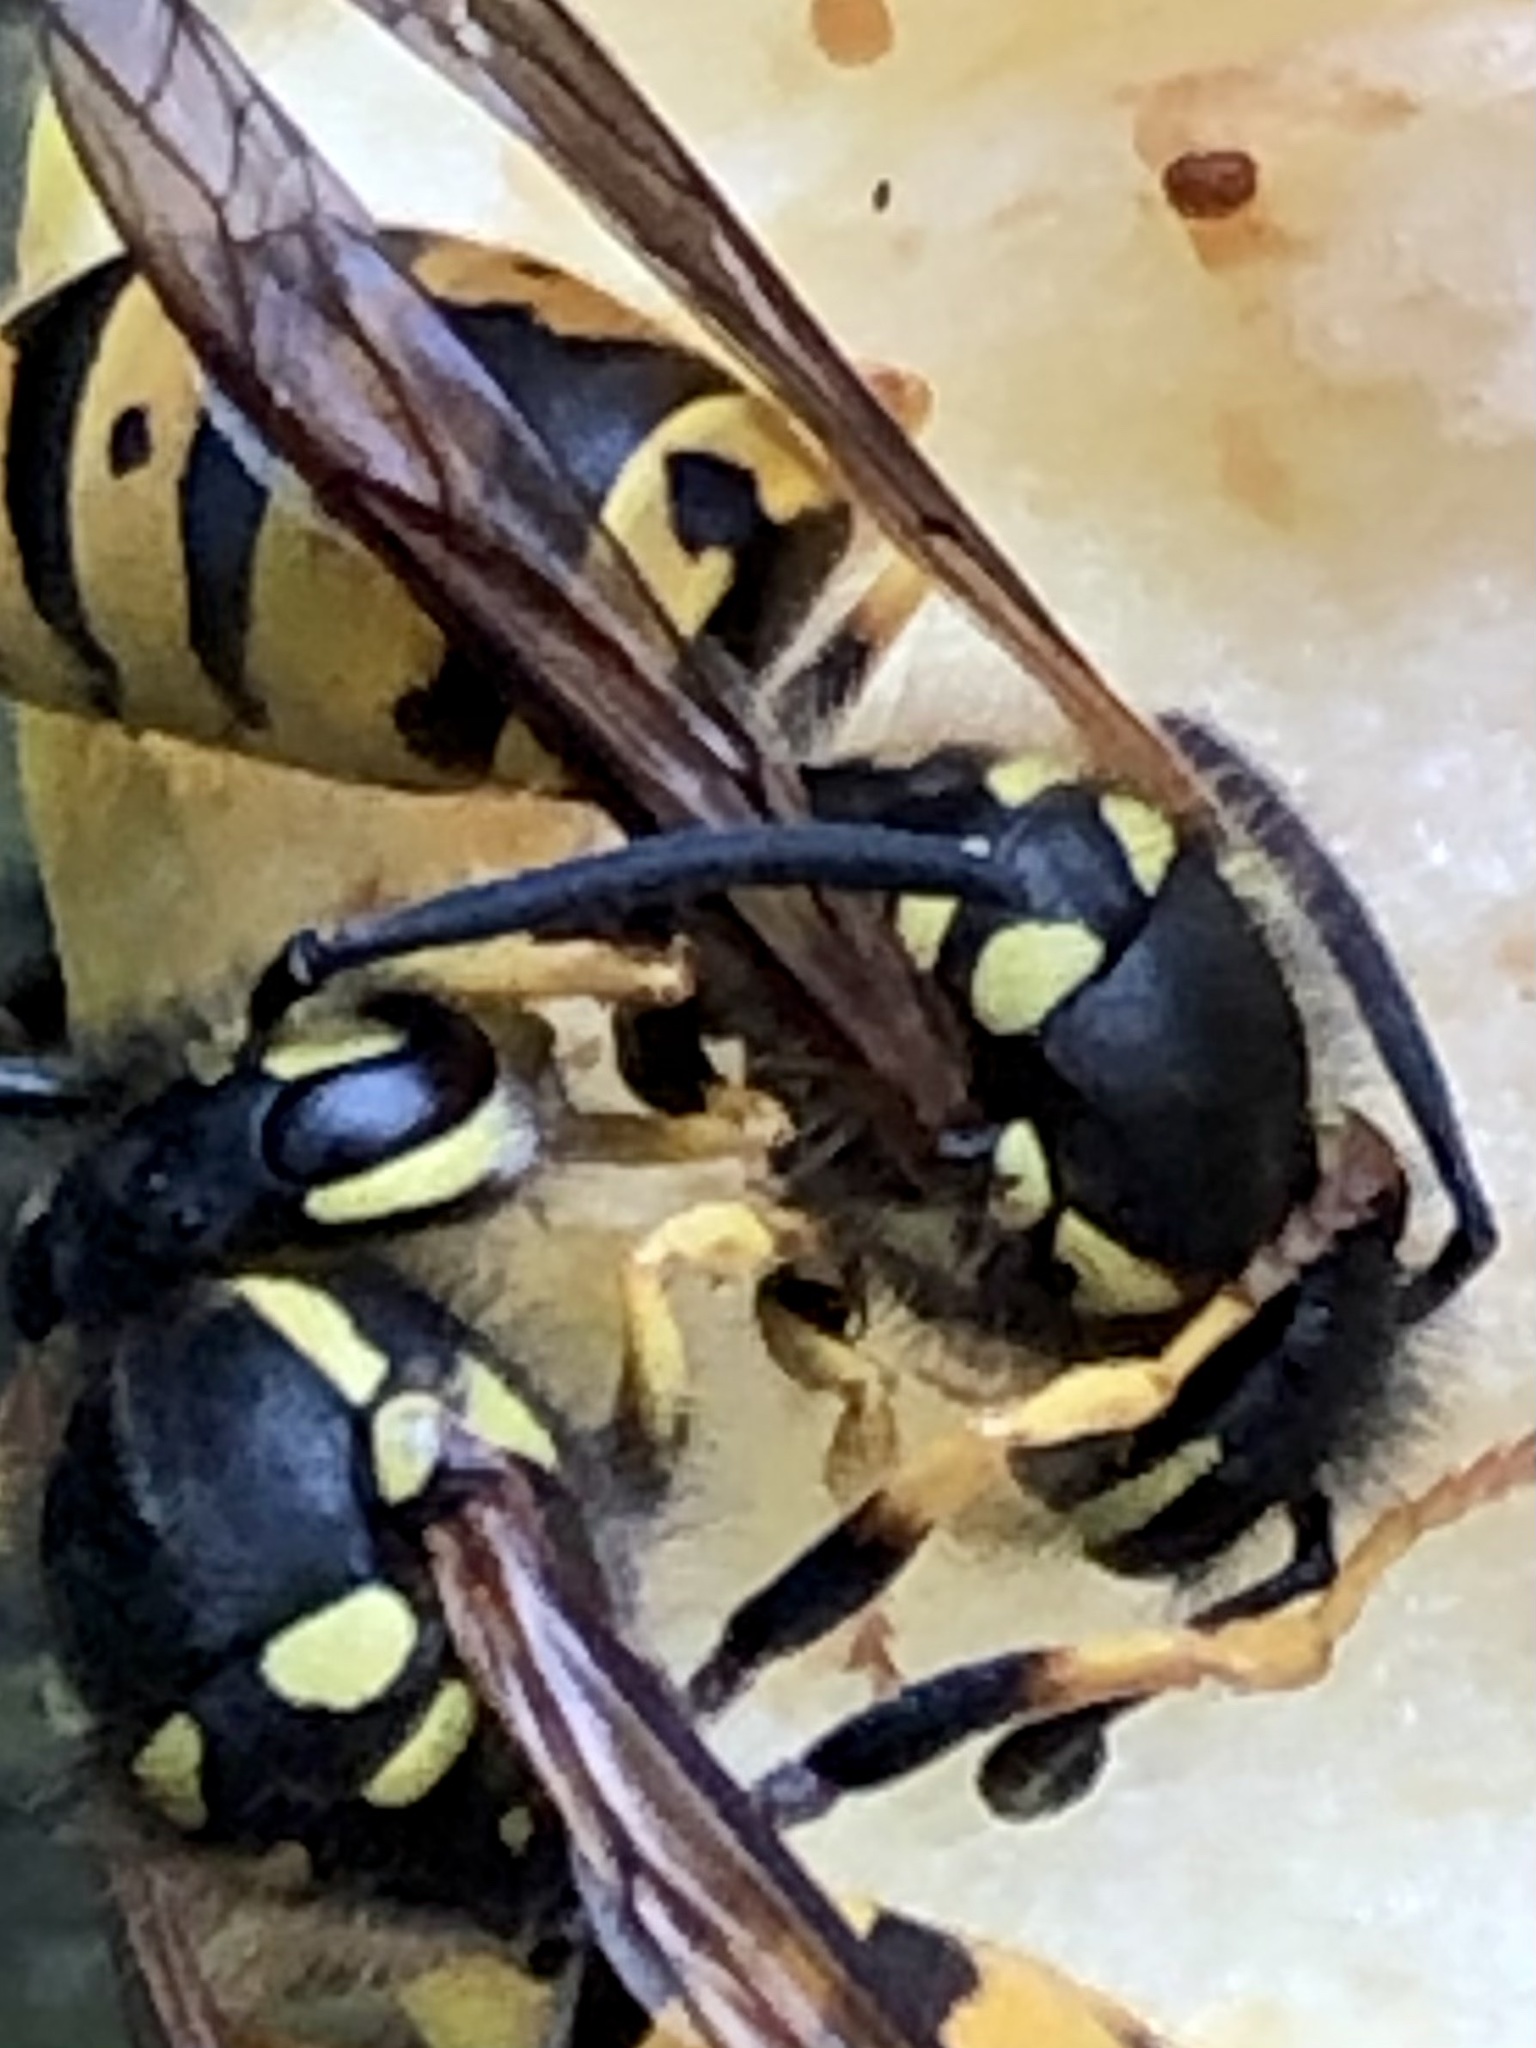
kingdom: Animalia
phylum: Arthropoda
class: Insecta
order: Hymenoptera
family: Vespidae
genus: Vespula
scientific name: Vespula germanica
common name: German wasp
